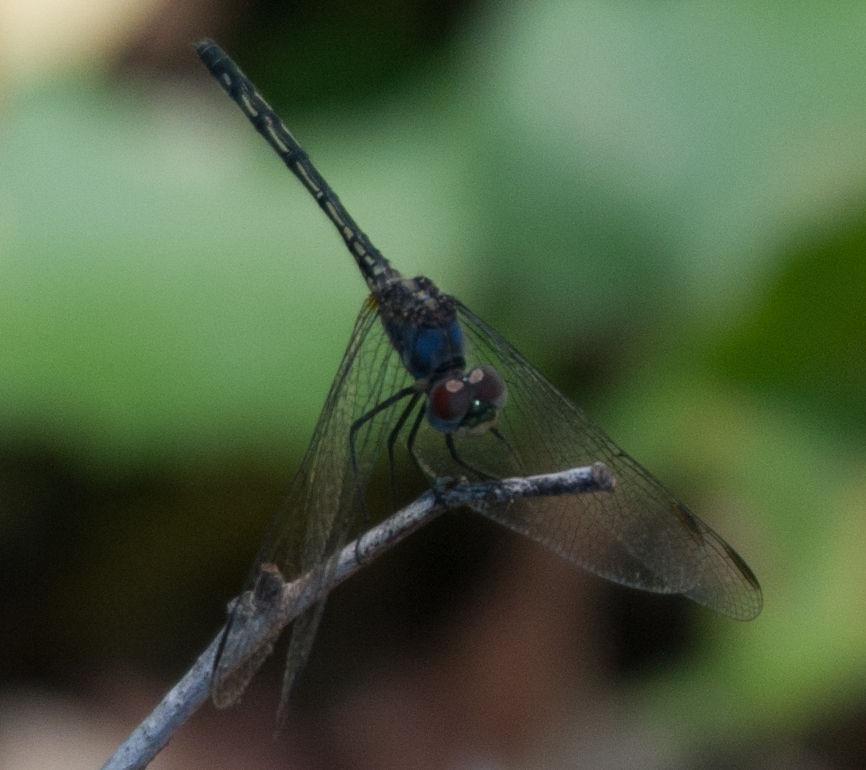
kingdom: Animalia
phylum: Arthropoda
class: Insecta
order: Odonata
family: Libellulidae
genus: Trithemis
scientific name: Trithemis hecate
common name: Silhouette dropwing
